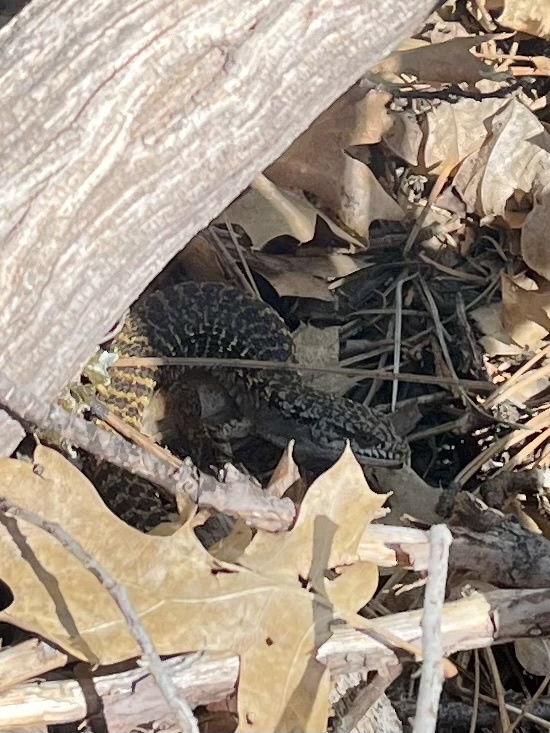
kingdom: Animalia
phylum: Chordata
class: Squamata
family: Anguidae
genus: Elgaria
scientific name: Elgaria coerulea
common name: Northern alligator lizard
